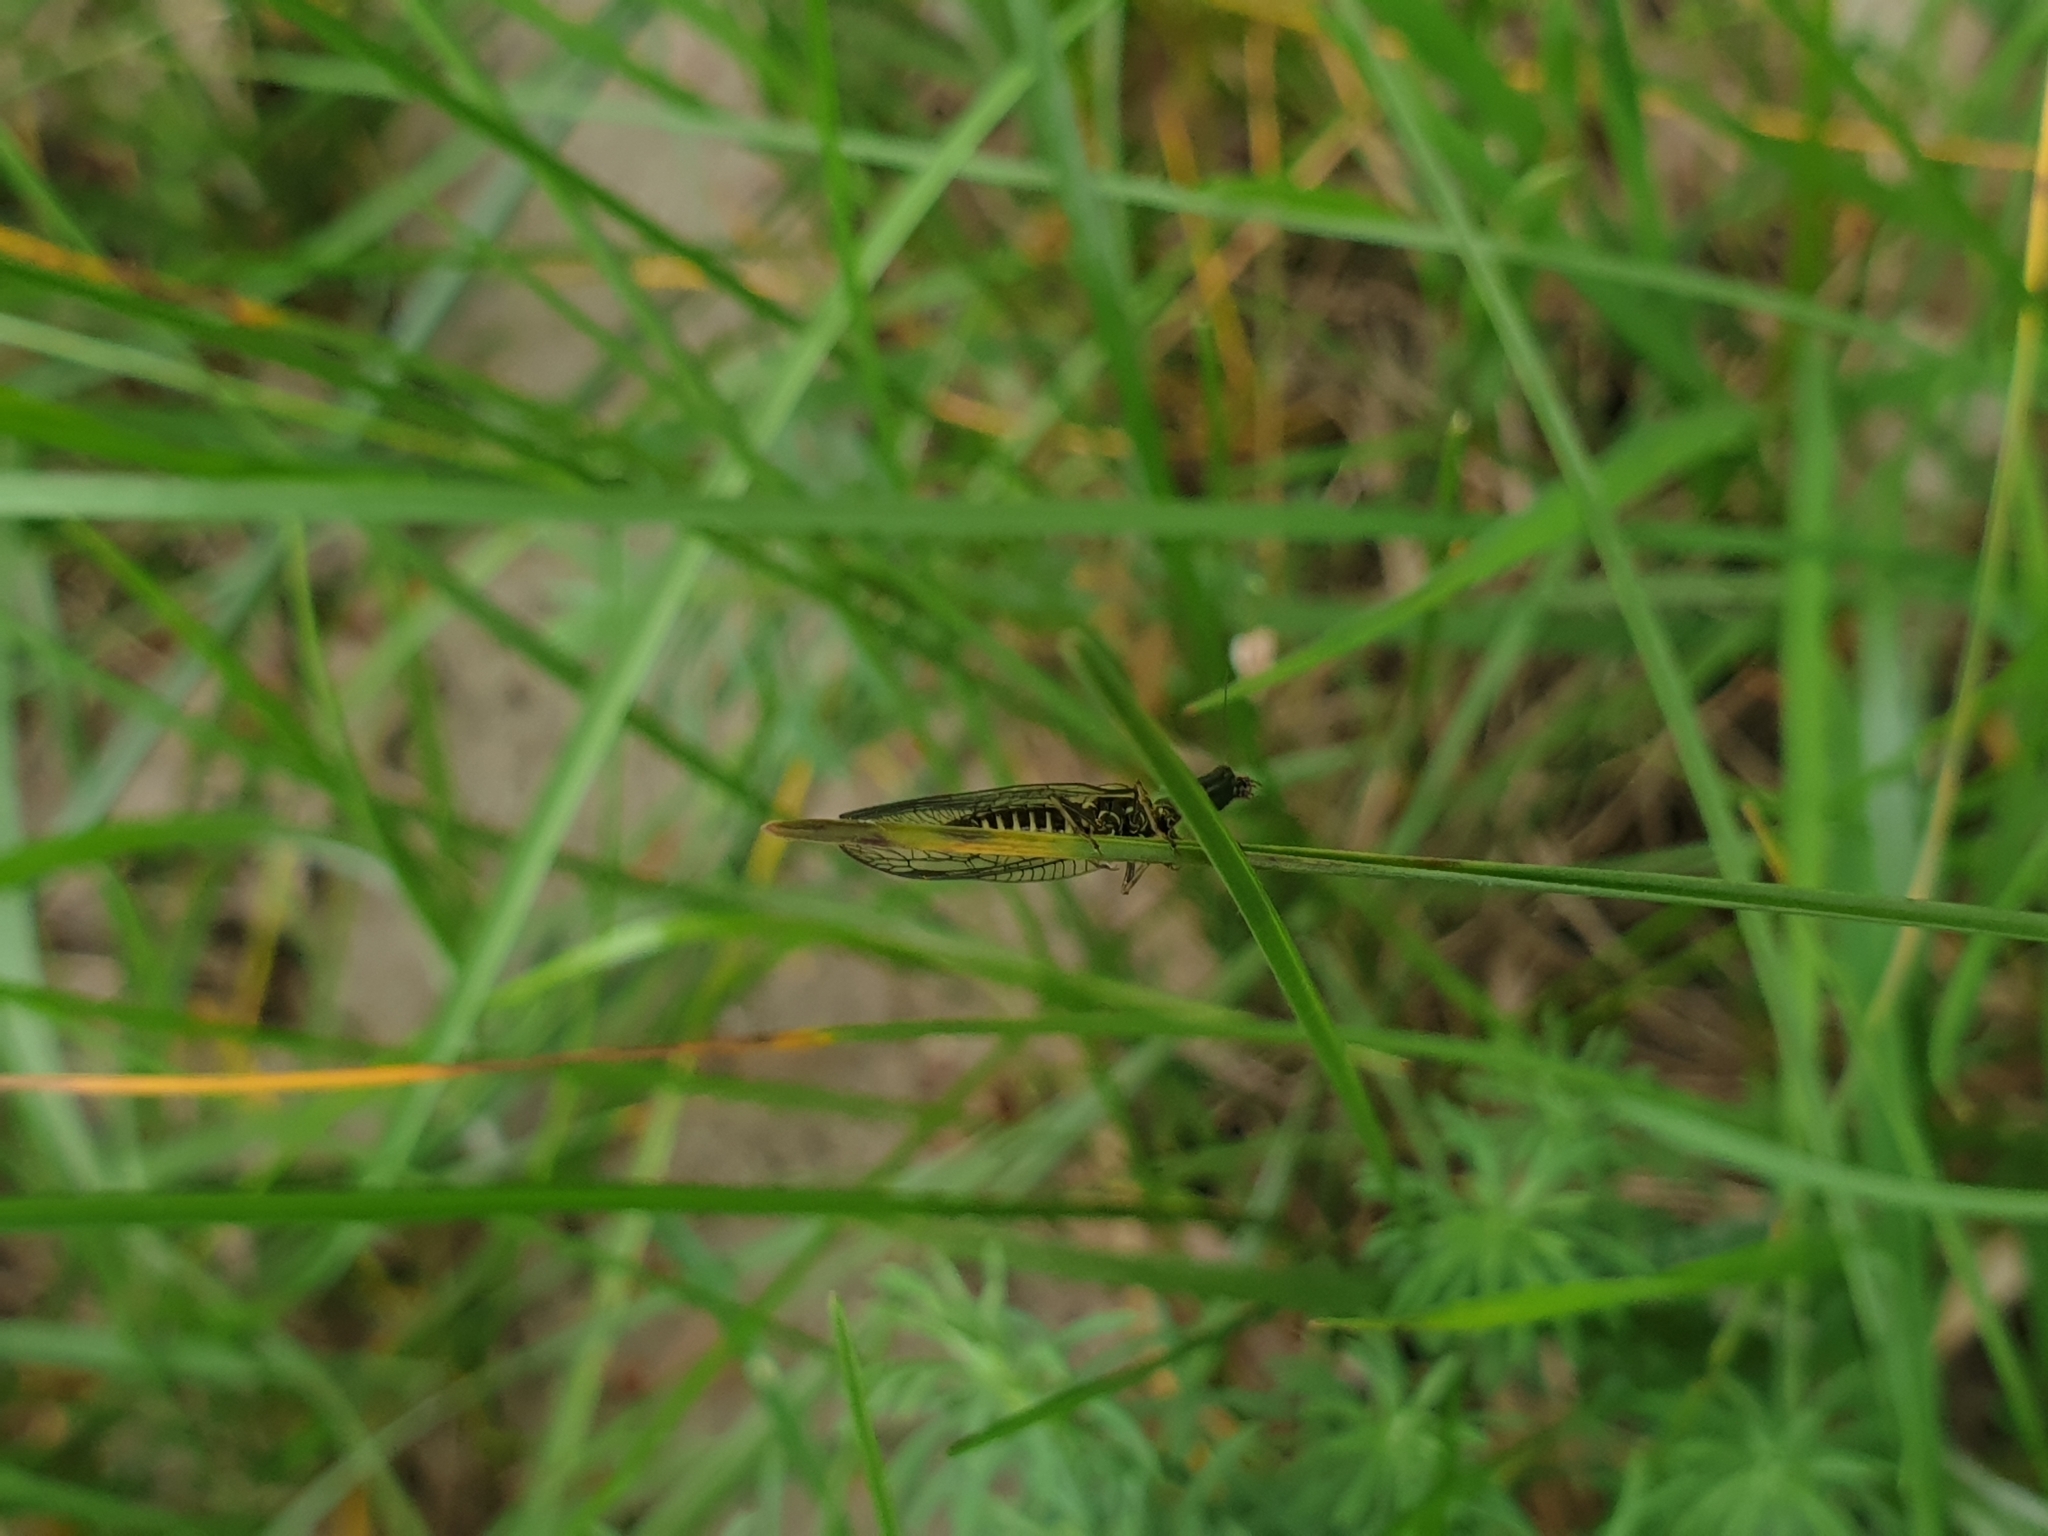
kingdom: Animalia
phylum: Arthropoda
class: Insecta
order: Raphidioptera
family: Raphidiidae
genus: Phaeostigma
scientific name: Phaeostigma notatum
